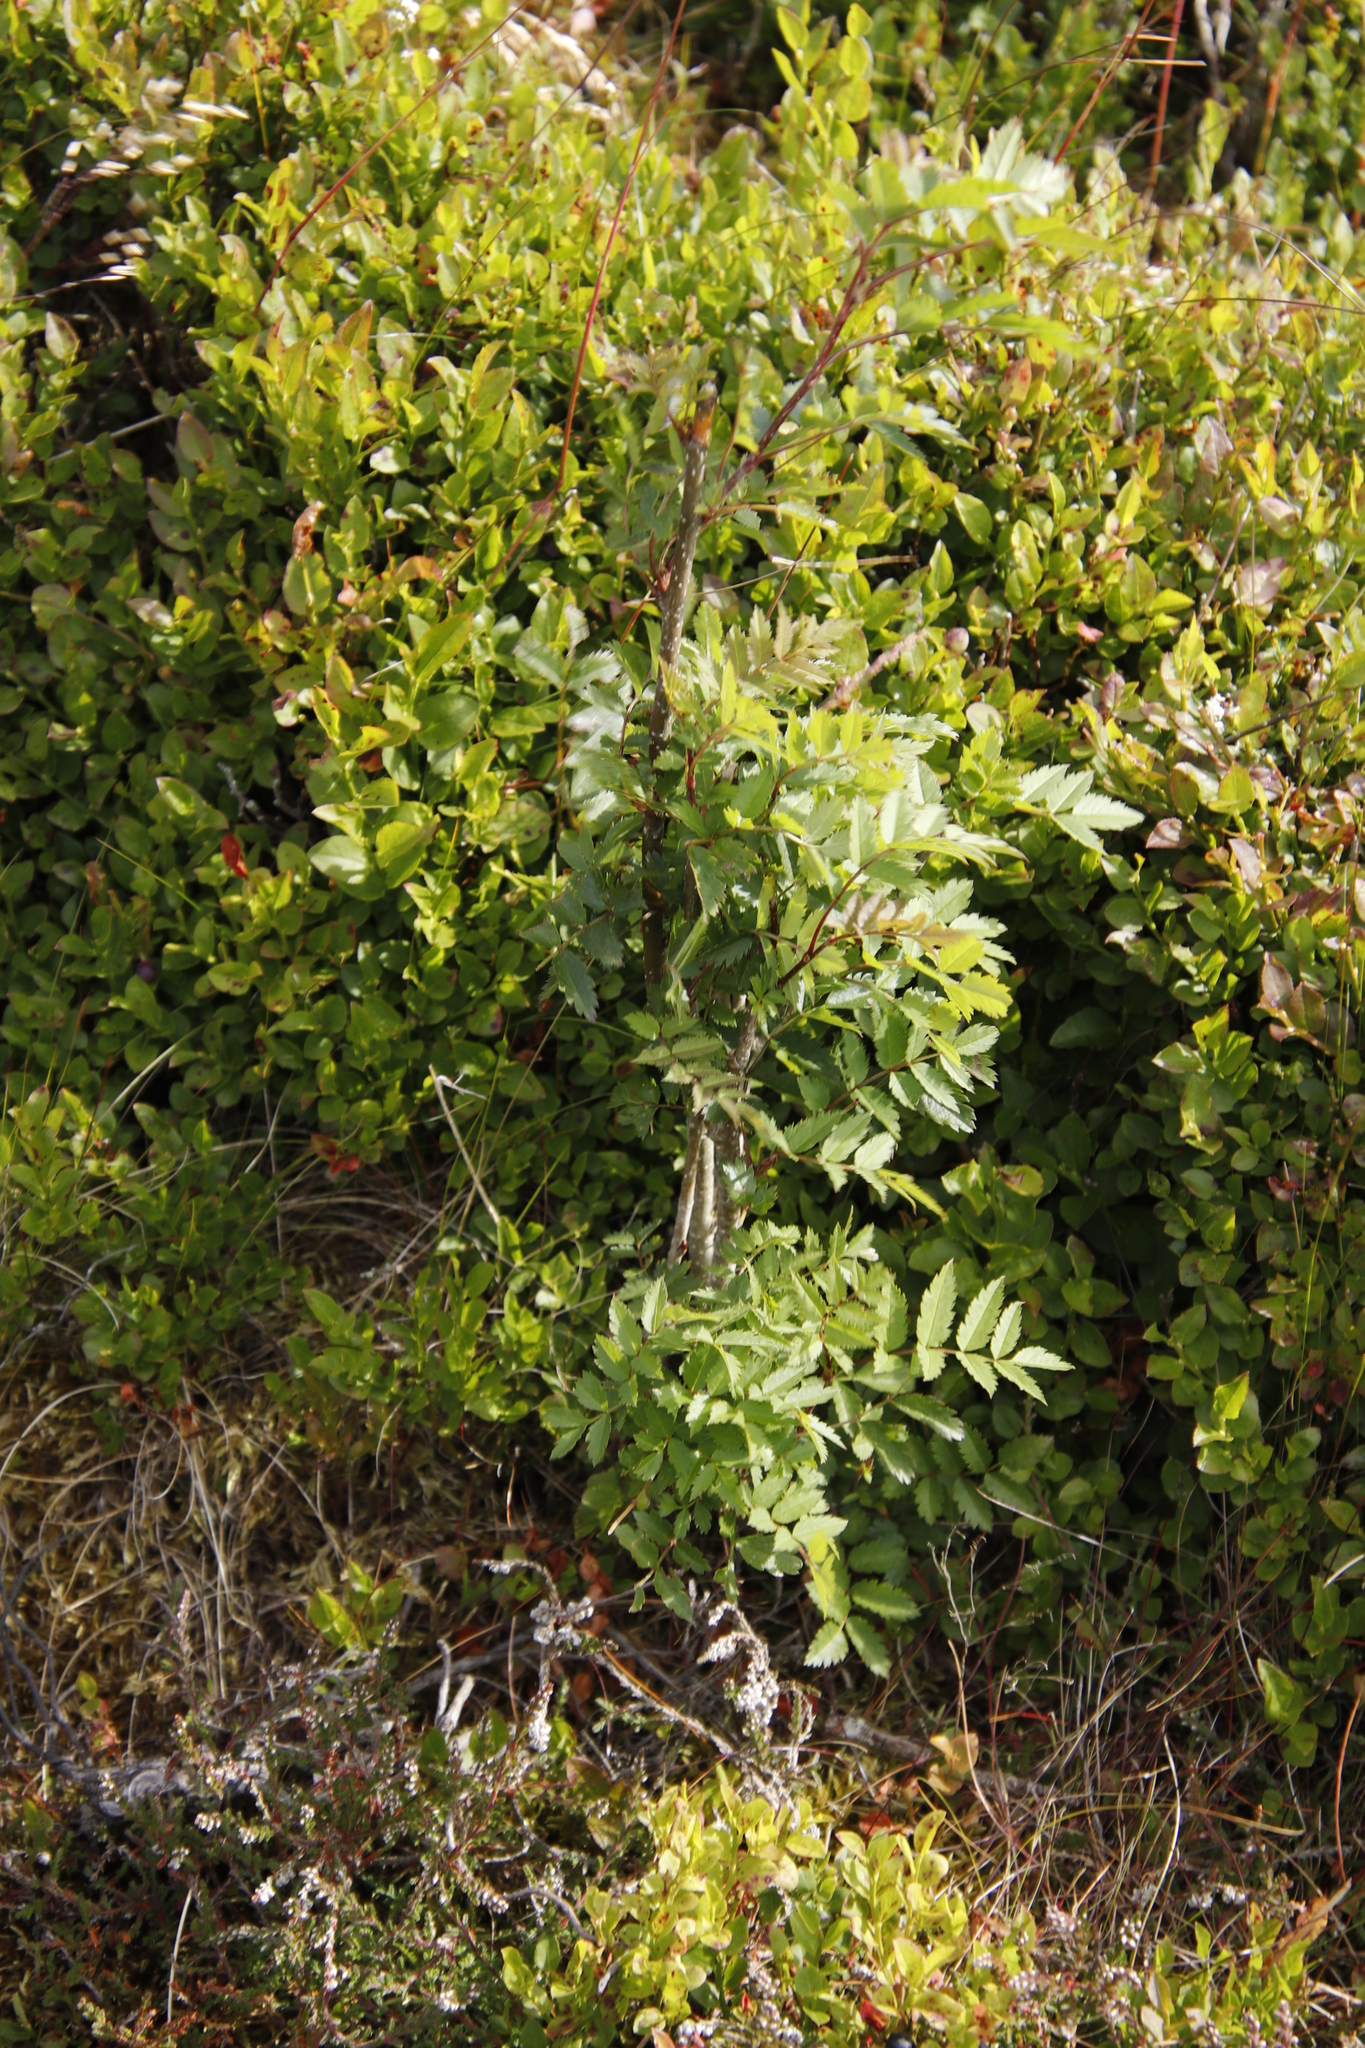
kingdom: Plantae
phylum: Tracheophyta
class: Magnoliopsida
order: Rosales
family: Rosaceae
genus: Sorbus
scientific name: Sorbus aucuparia
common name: Rowan
